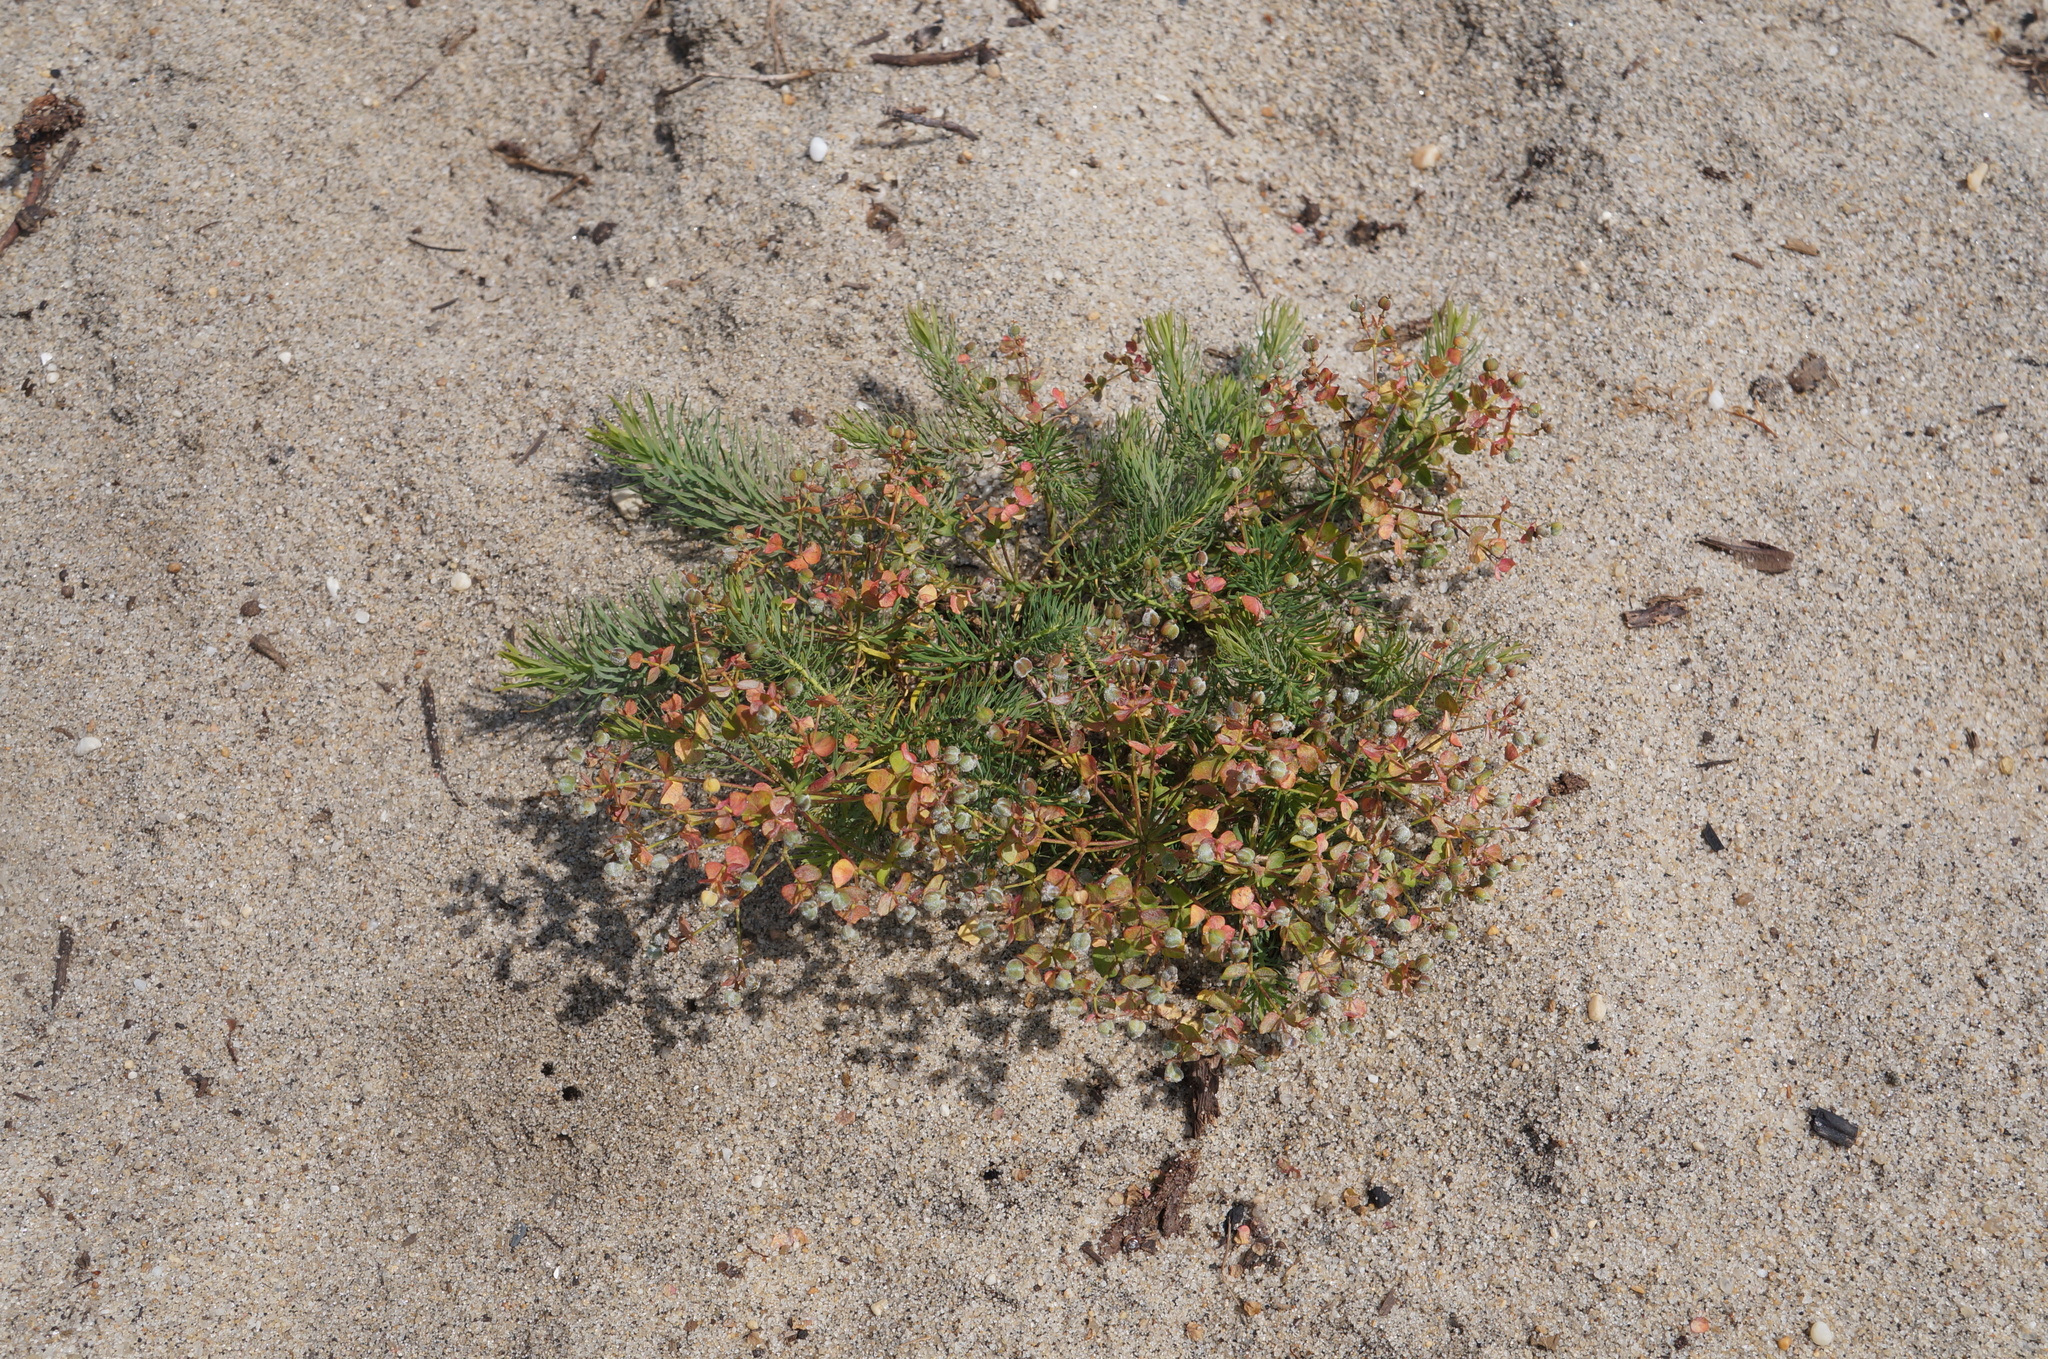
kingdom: Plantae
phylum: Tracheophyta
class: Magnoliopsida
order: Malpighiales
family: Euphorbiaceae
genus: Euphorbia
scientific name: Euphorbia cyparissias
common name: Cypress spurge
